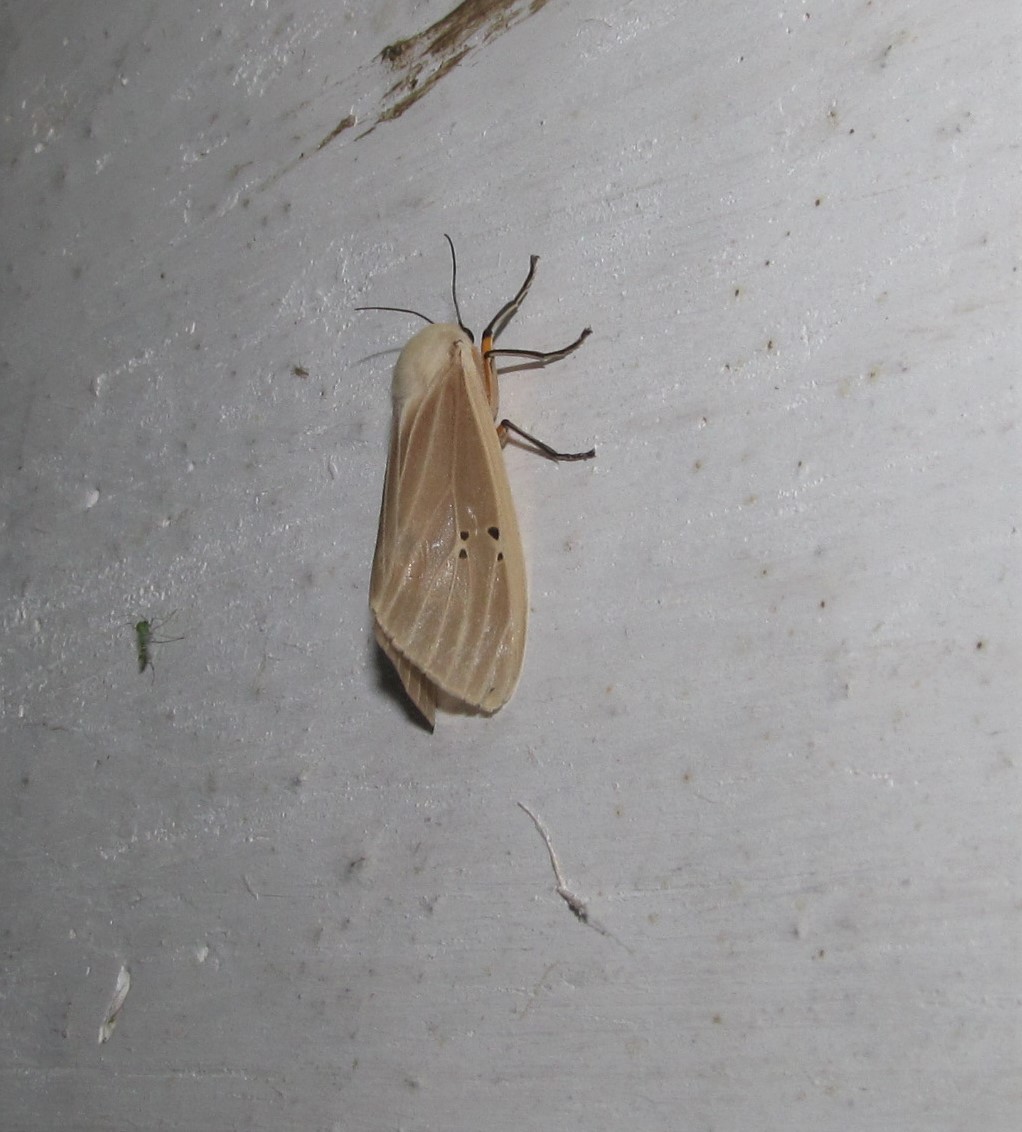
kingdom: Animalia
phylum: Arthropoda
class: Insecta
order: Lepidoptera
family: Erebidae
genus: Creatonotos
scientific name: Creatonotos transiens
